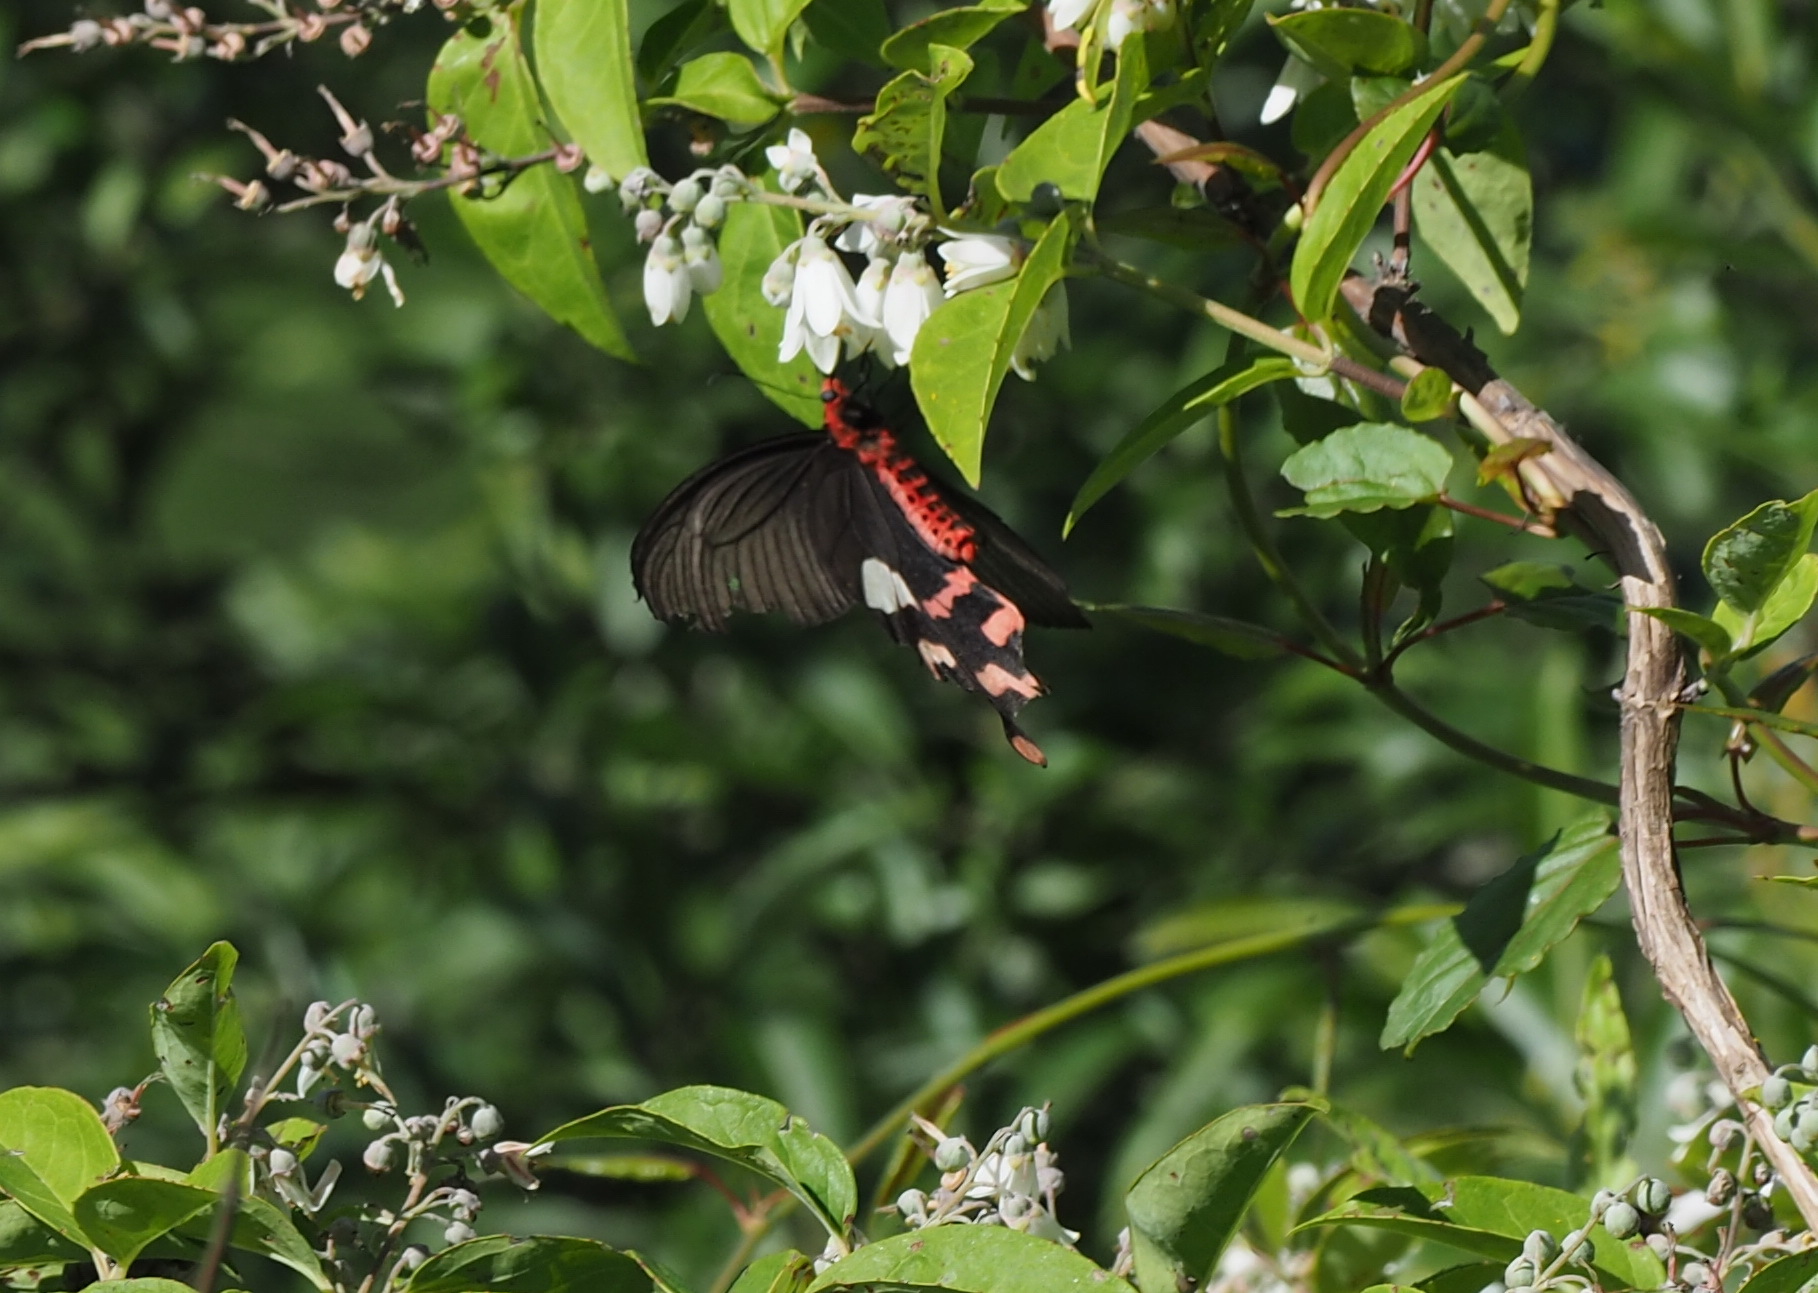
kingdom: Animalia
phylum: Arthropoda
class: Insecta
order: Lepidoptera
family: Papilionidae
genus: Byasa
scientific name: Byasa polyeuctes
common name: Common windmill
